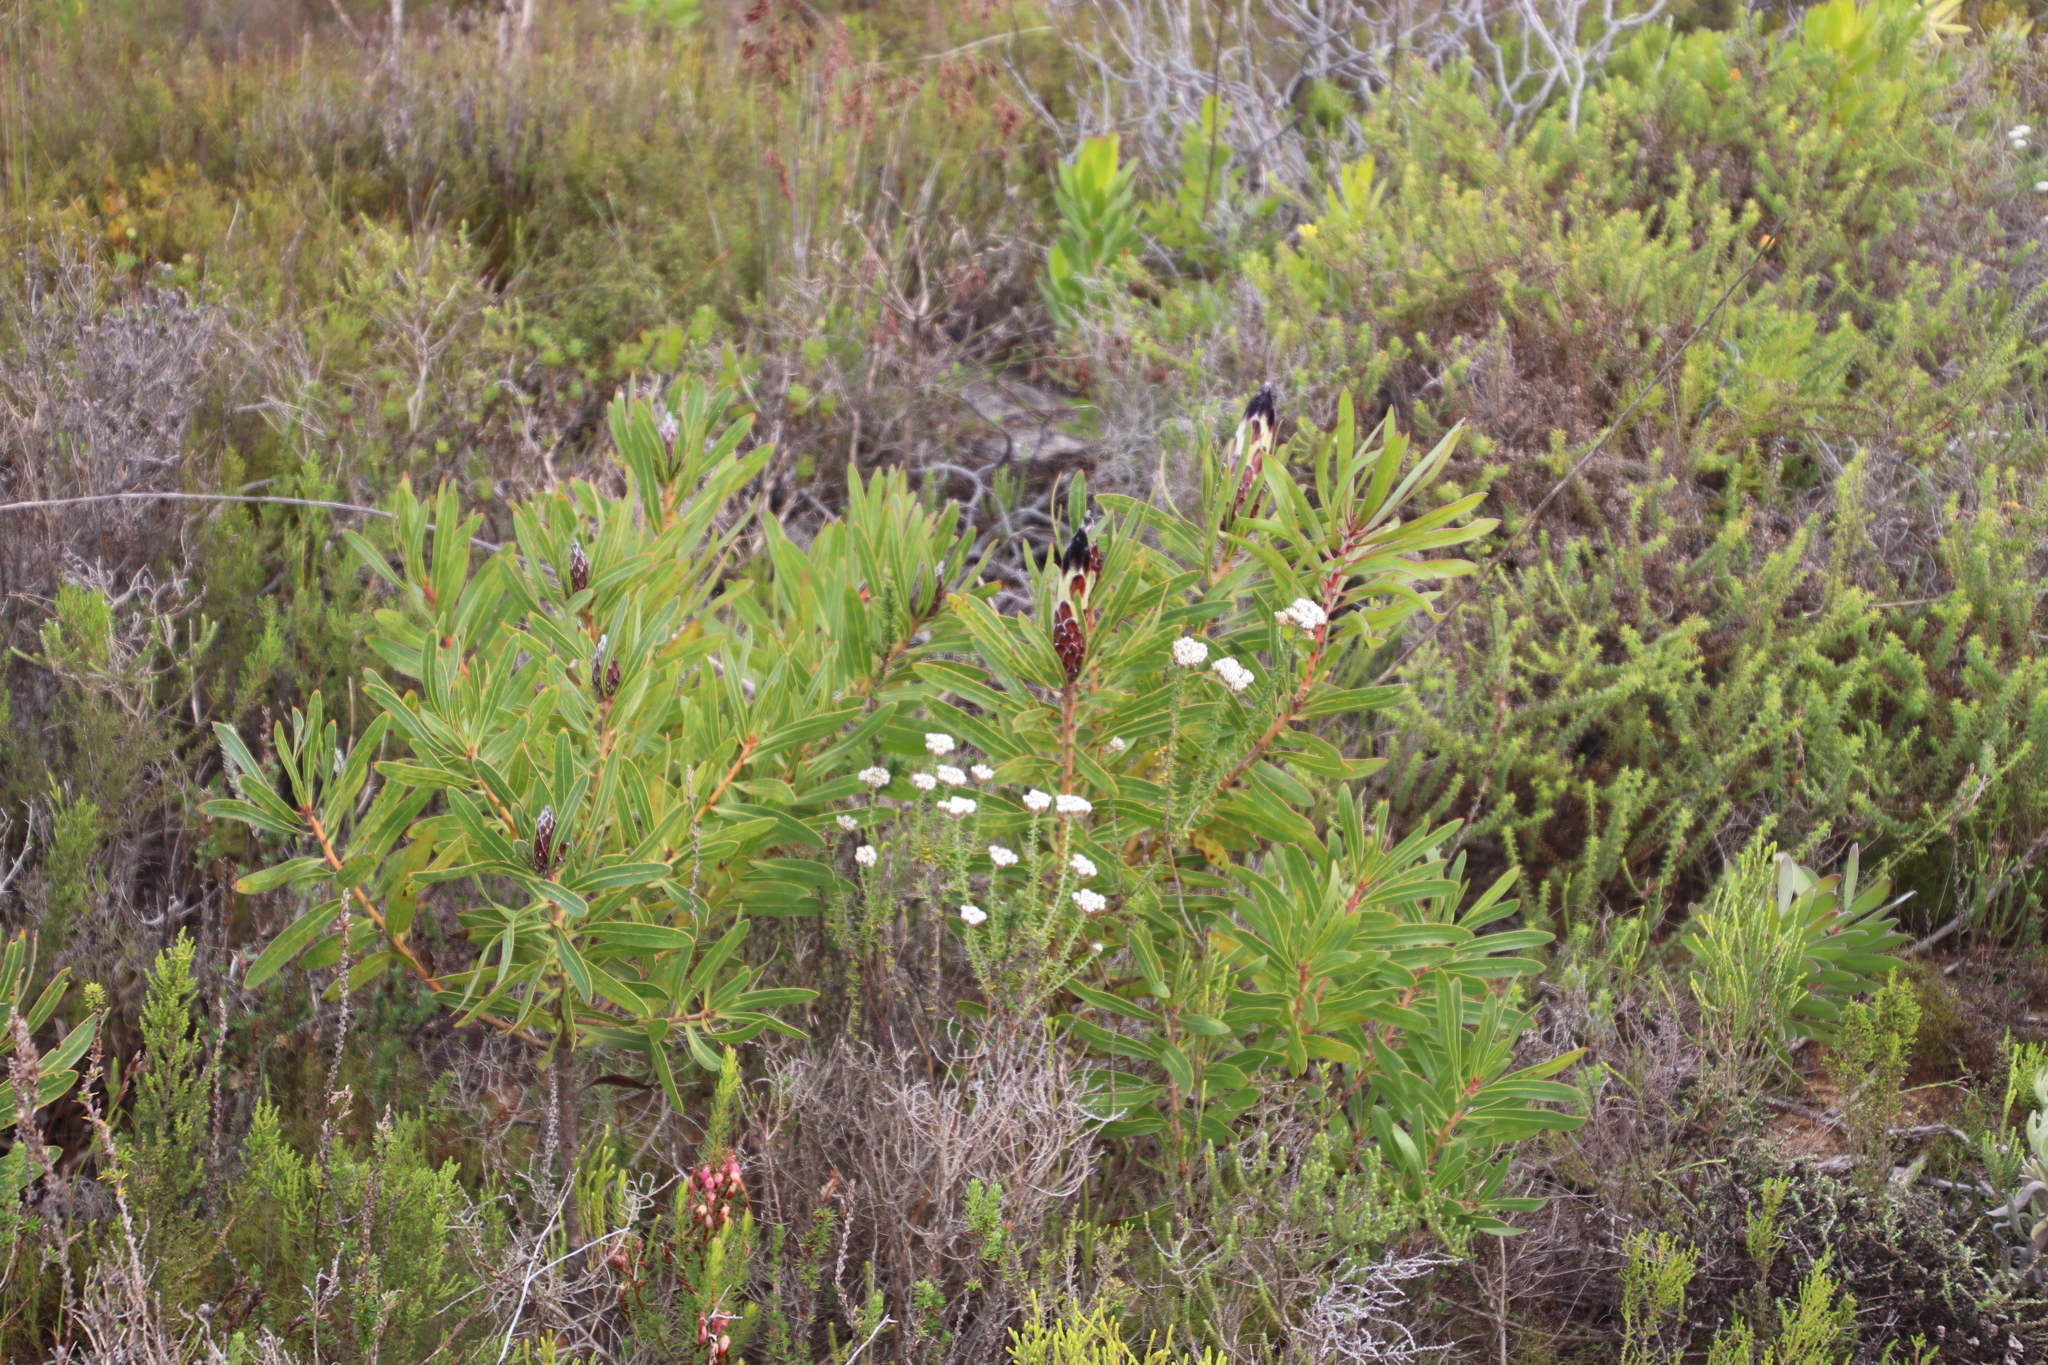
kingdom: Plantae
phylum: Tracheophyta
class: Magnoliopsida
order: Proteales
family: Proteaceae
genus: Protea
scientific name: Protea lepidocarpodendron
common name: Black-bearded protea
